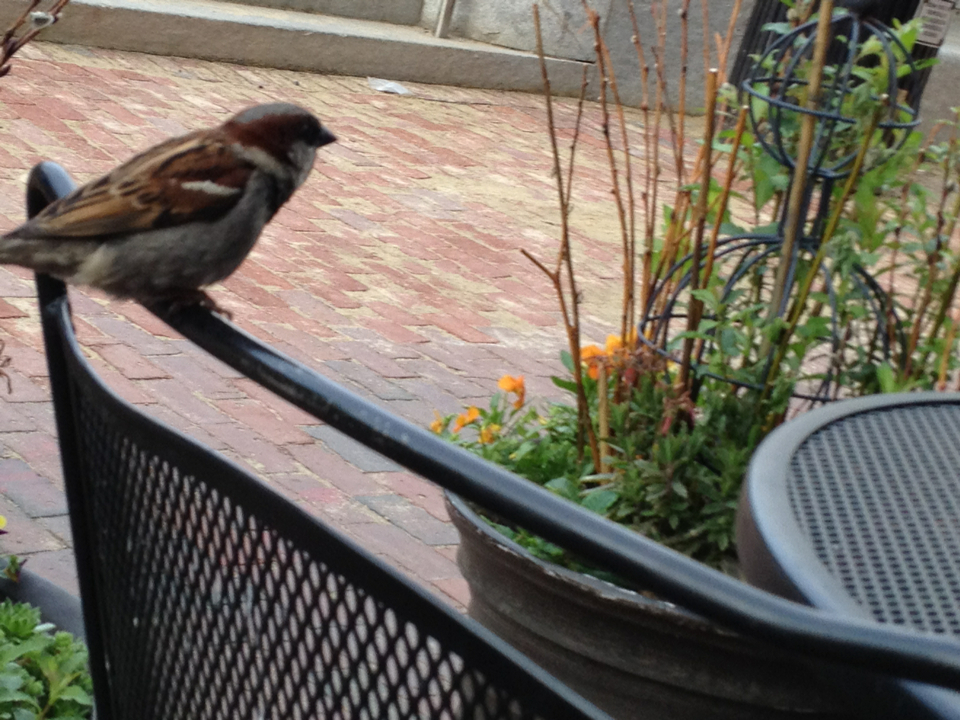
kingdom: Animalia
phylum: Chordata
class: Aves
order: Passeriformes
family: Passeridae
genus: Passer
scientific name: Passer domesticus
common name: House sparrow
